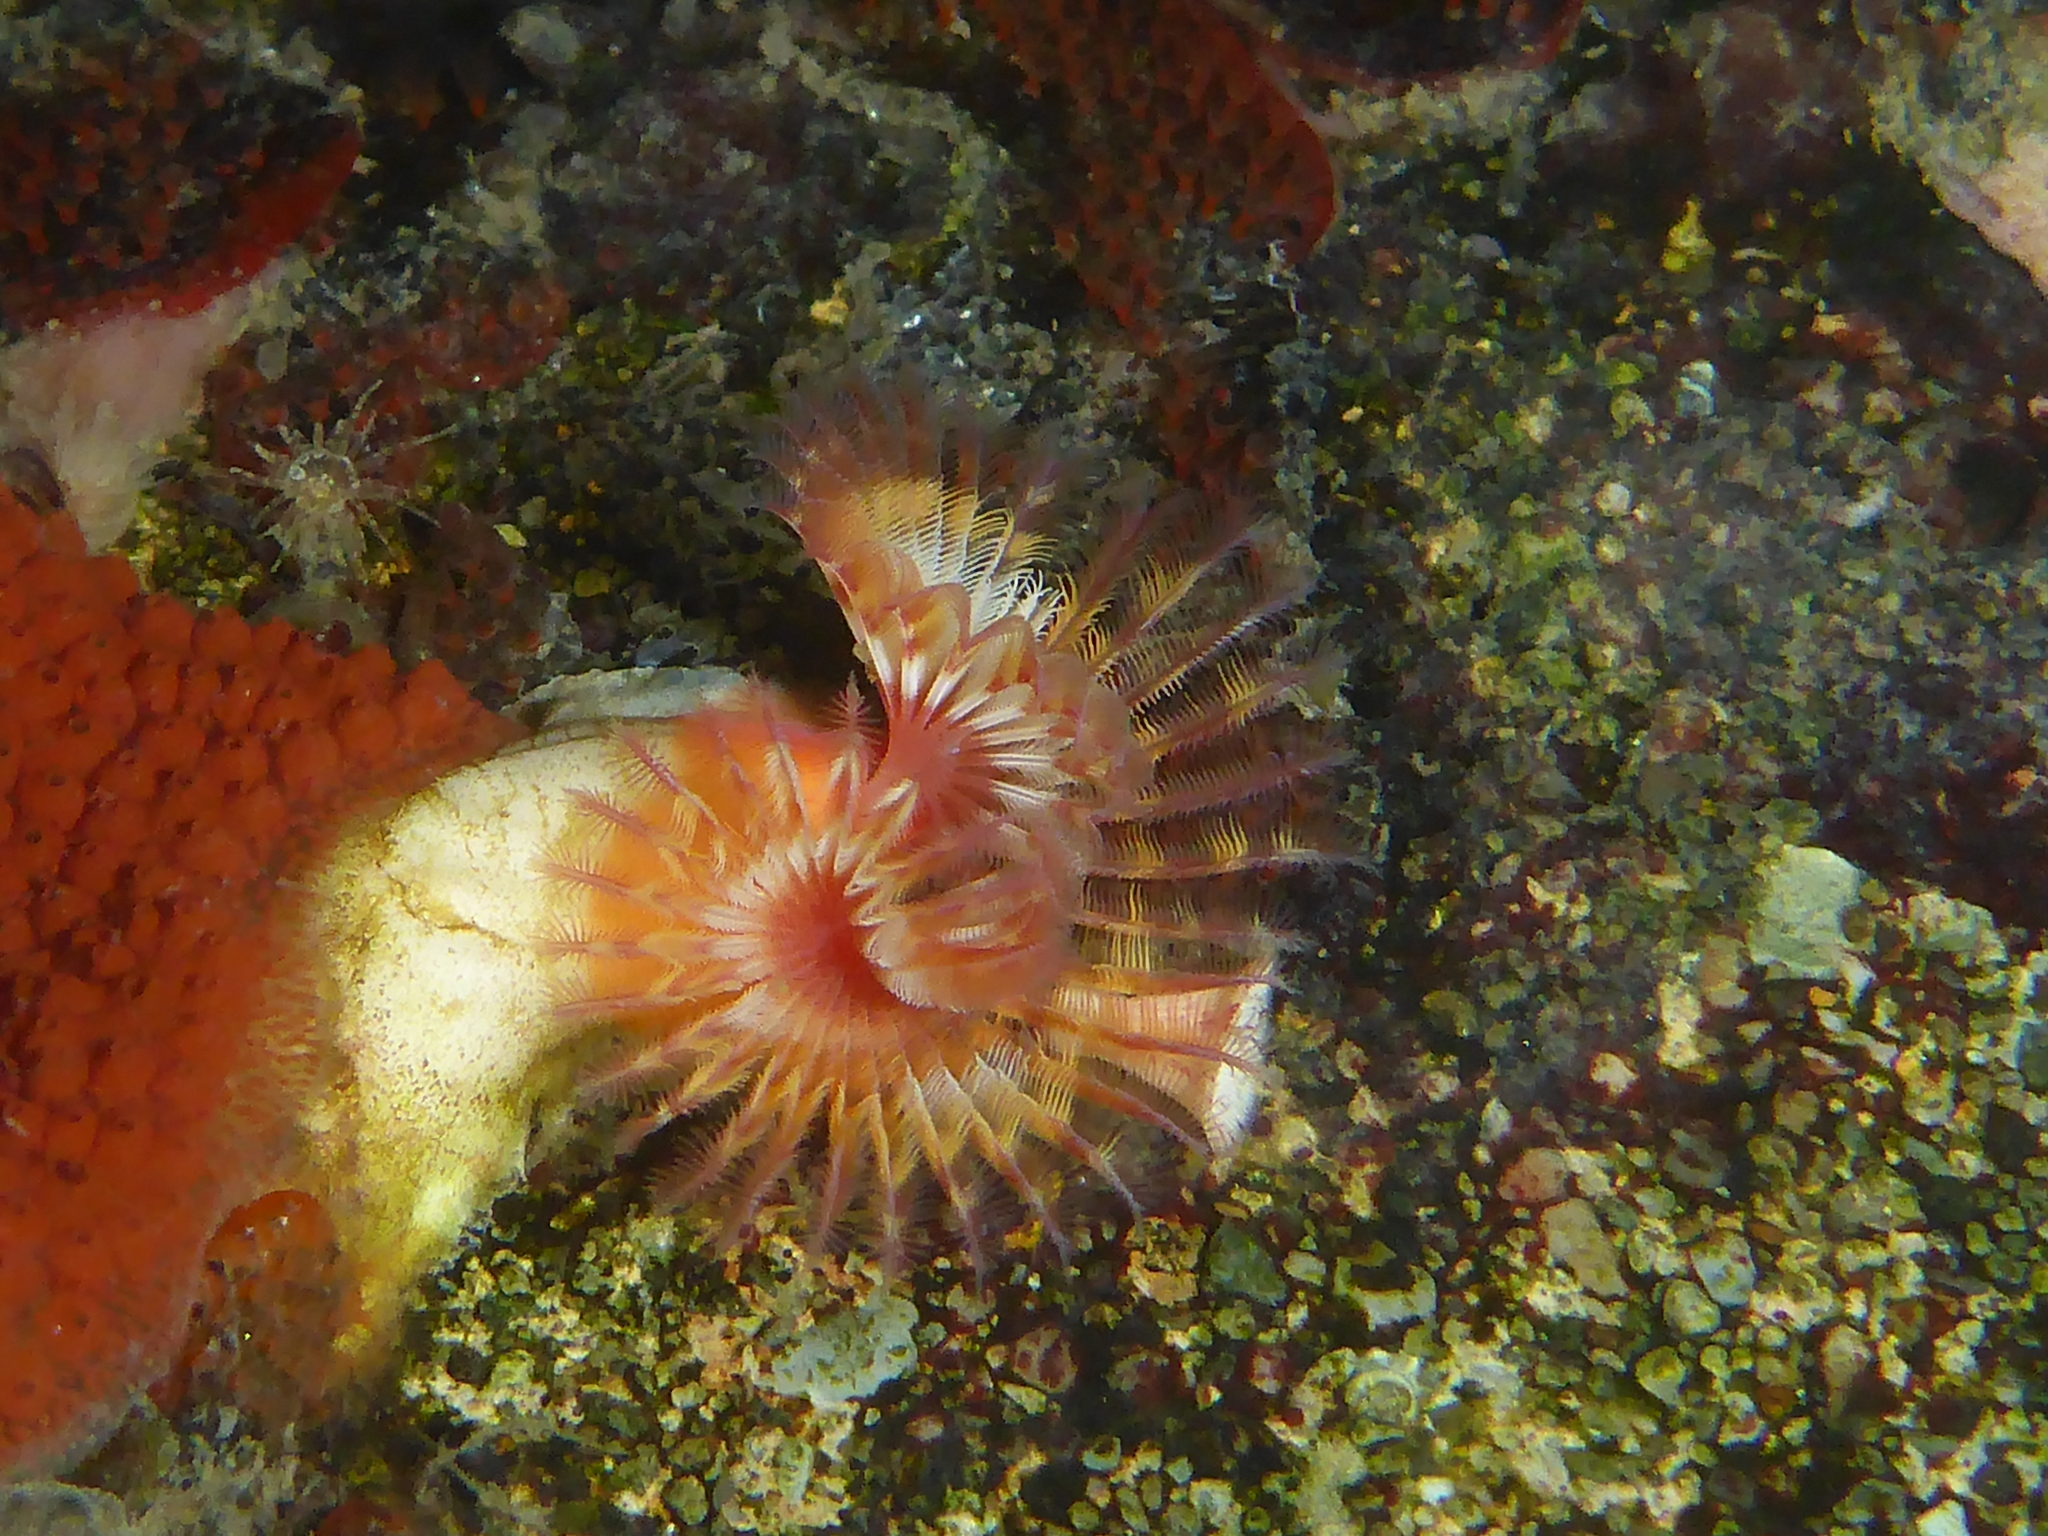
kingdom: Animalia
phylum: Annelida
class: Polychaeta
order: Sabellida
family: Serpulidae
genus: Serpula
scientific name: Serpula columbiana
